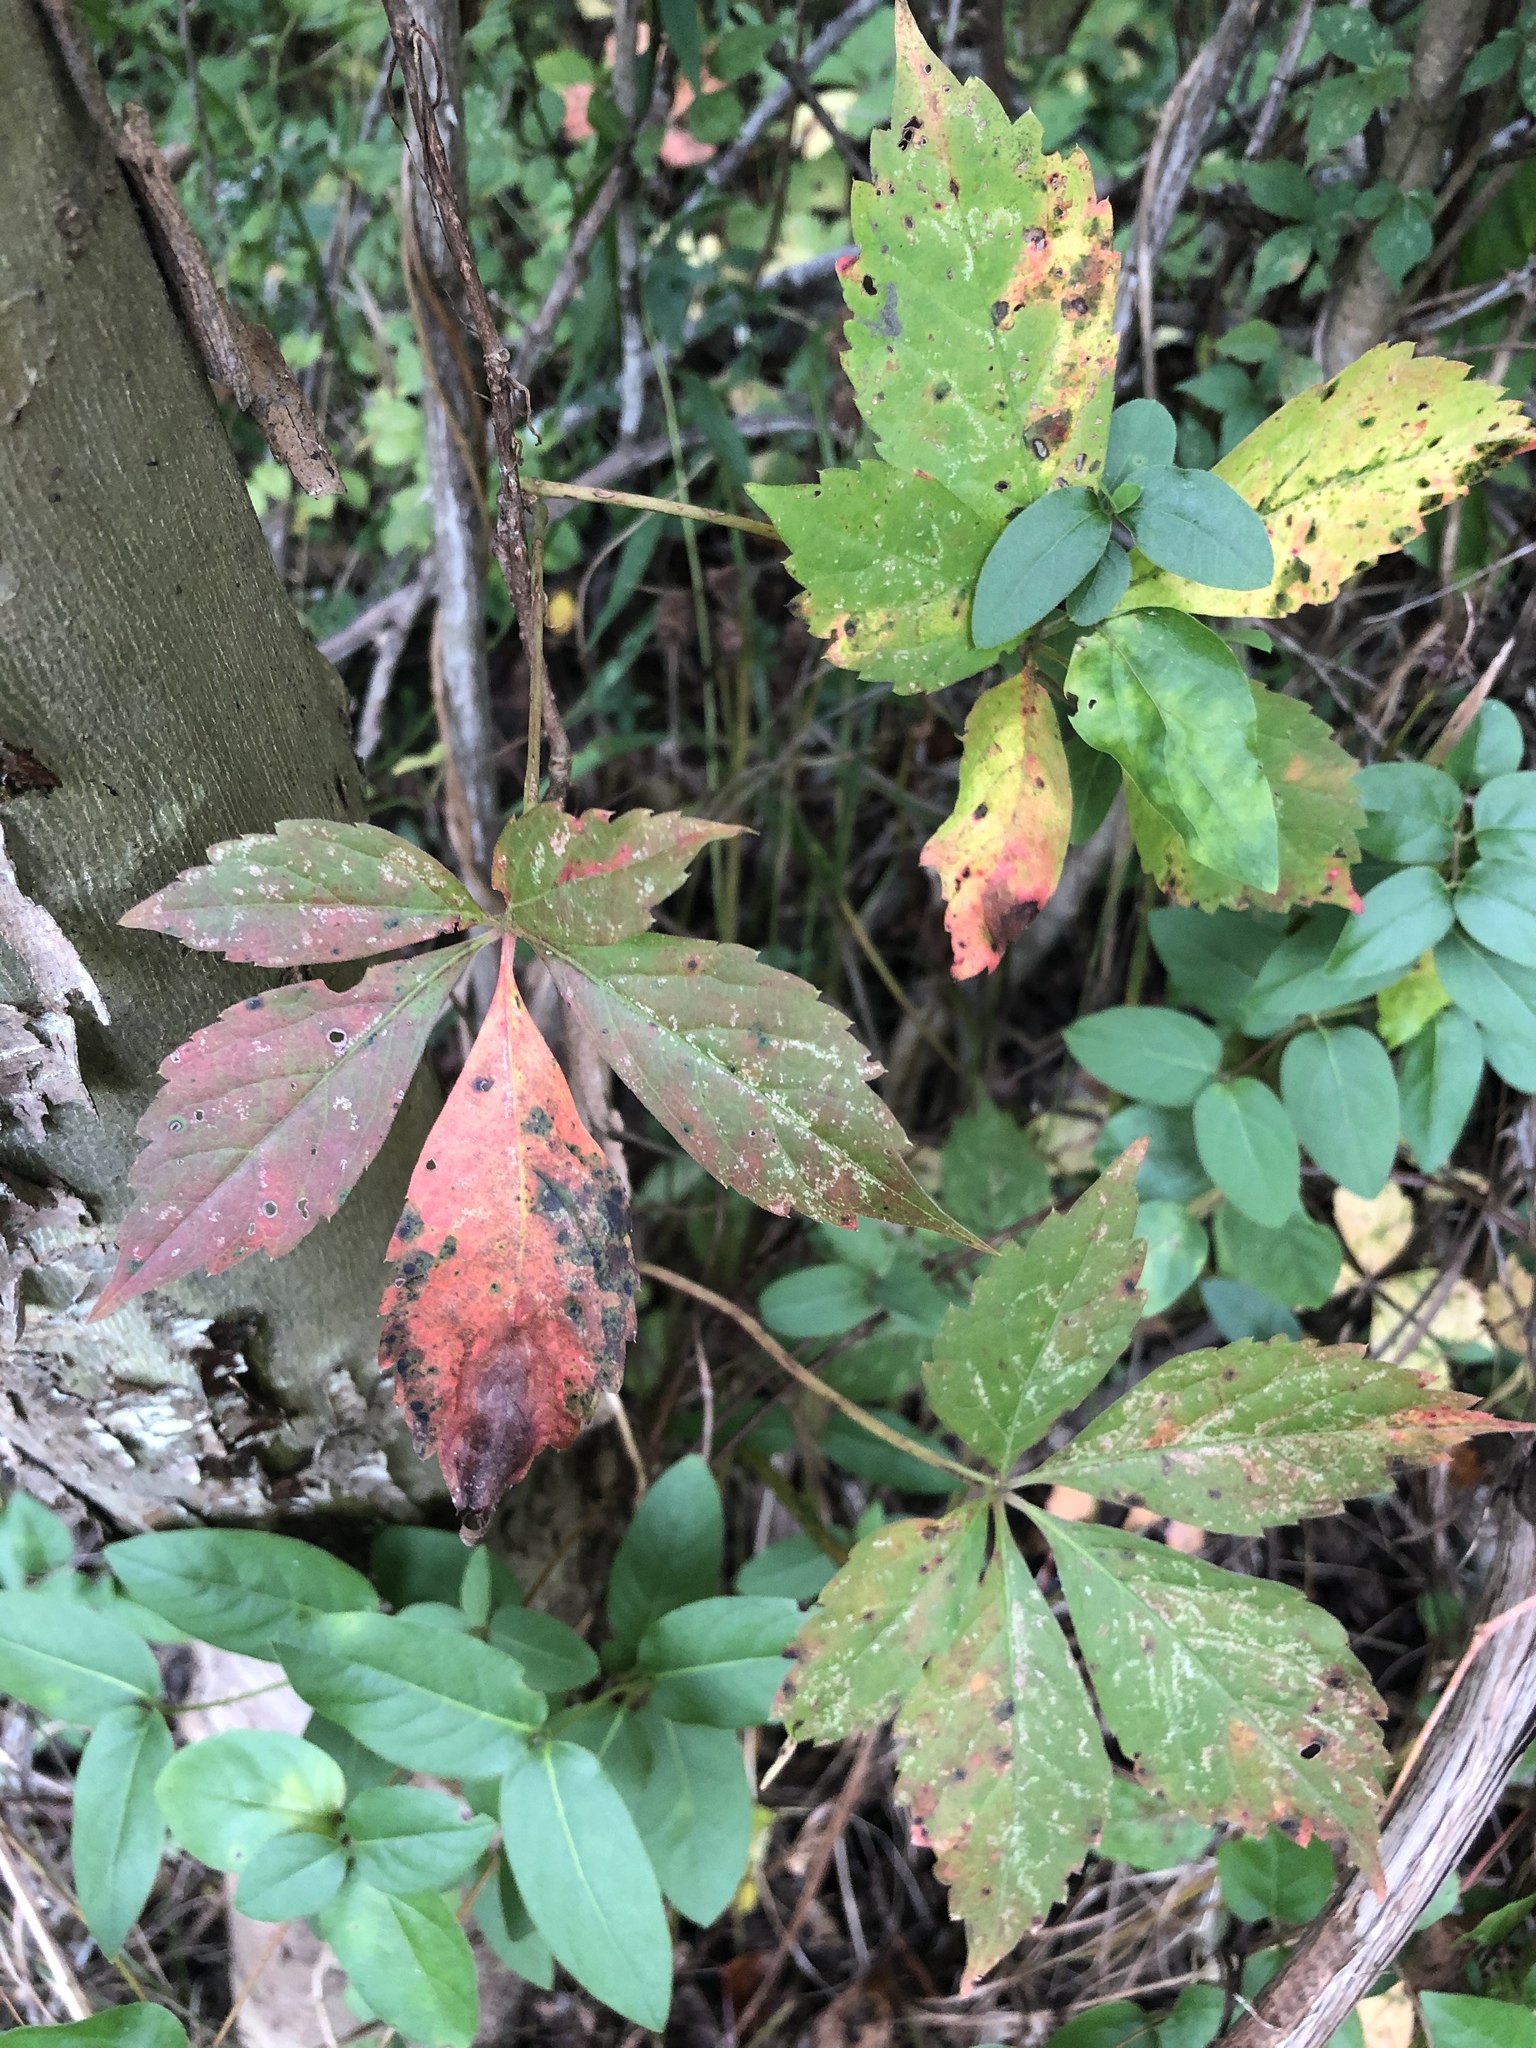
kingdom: Plantae
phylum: Tracheophyta
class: Magnoliopsida
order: Vitales
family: Vitaceae
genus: Parthenocissus
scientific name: Parthenocissus quinquefolia
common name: Virginia-creeper
